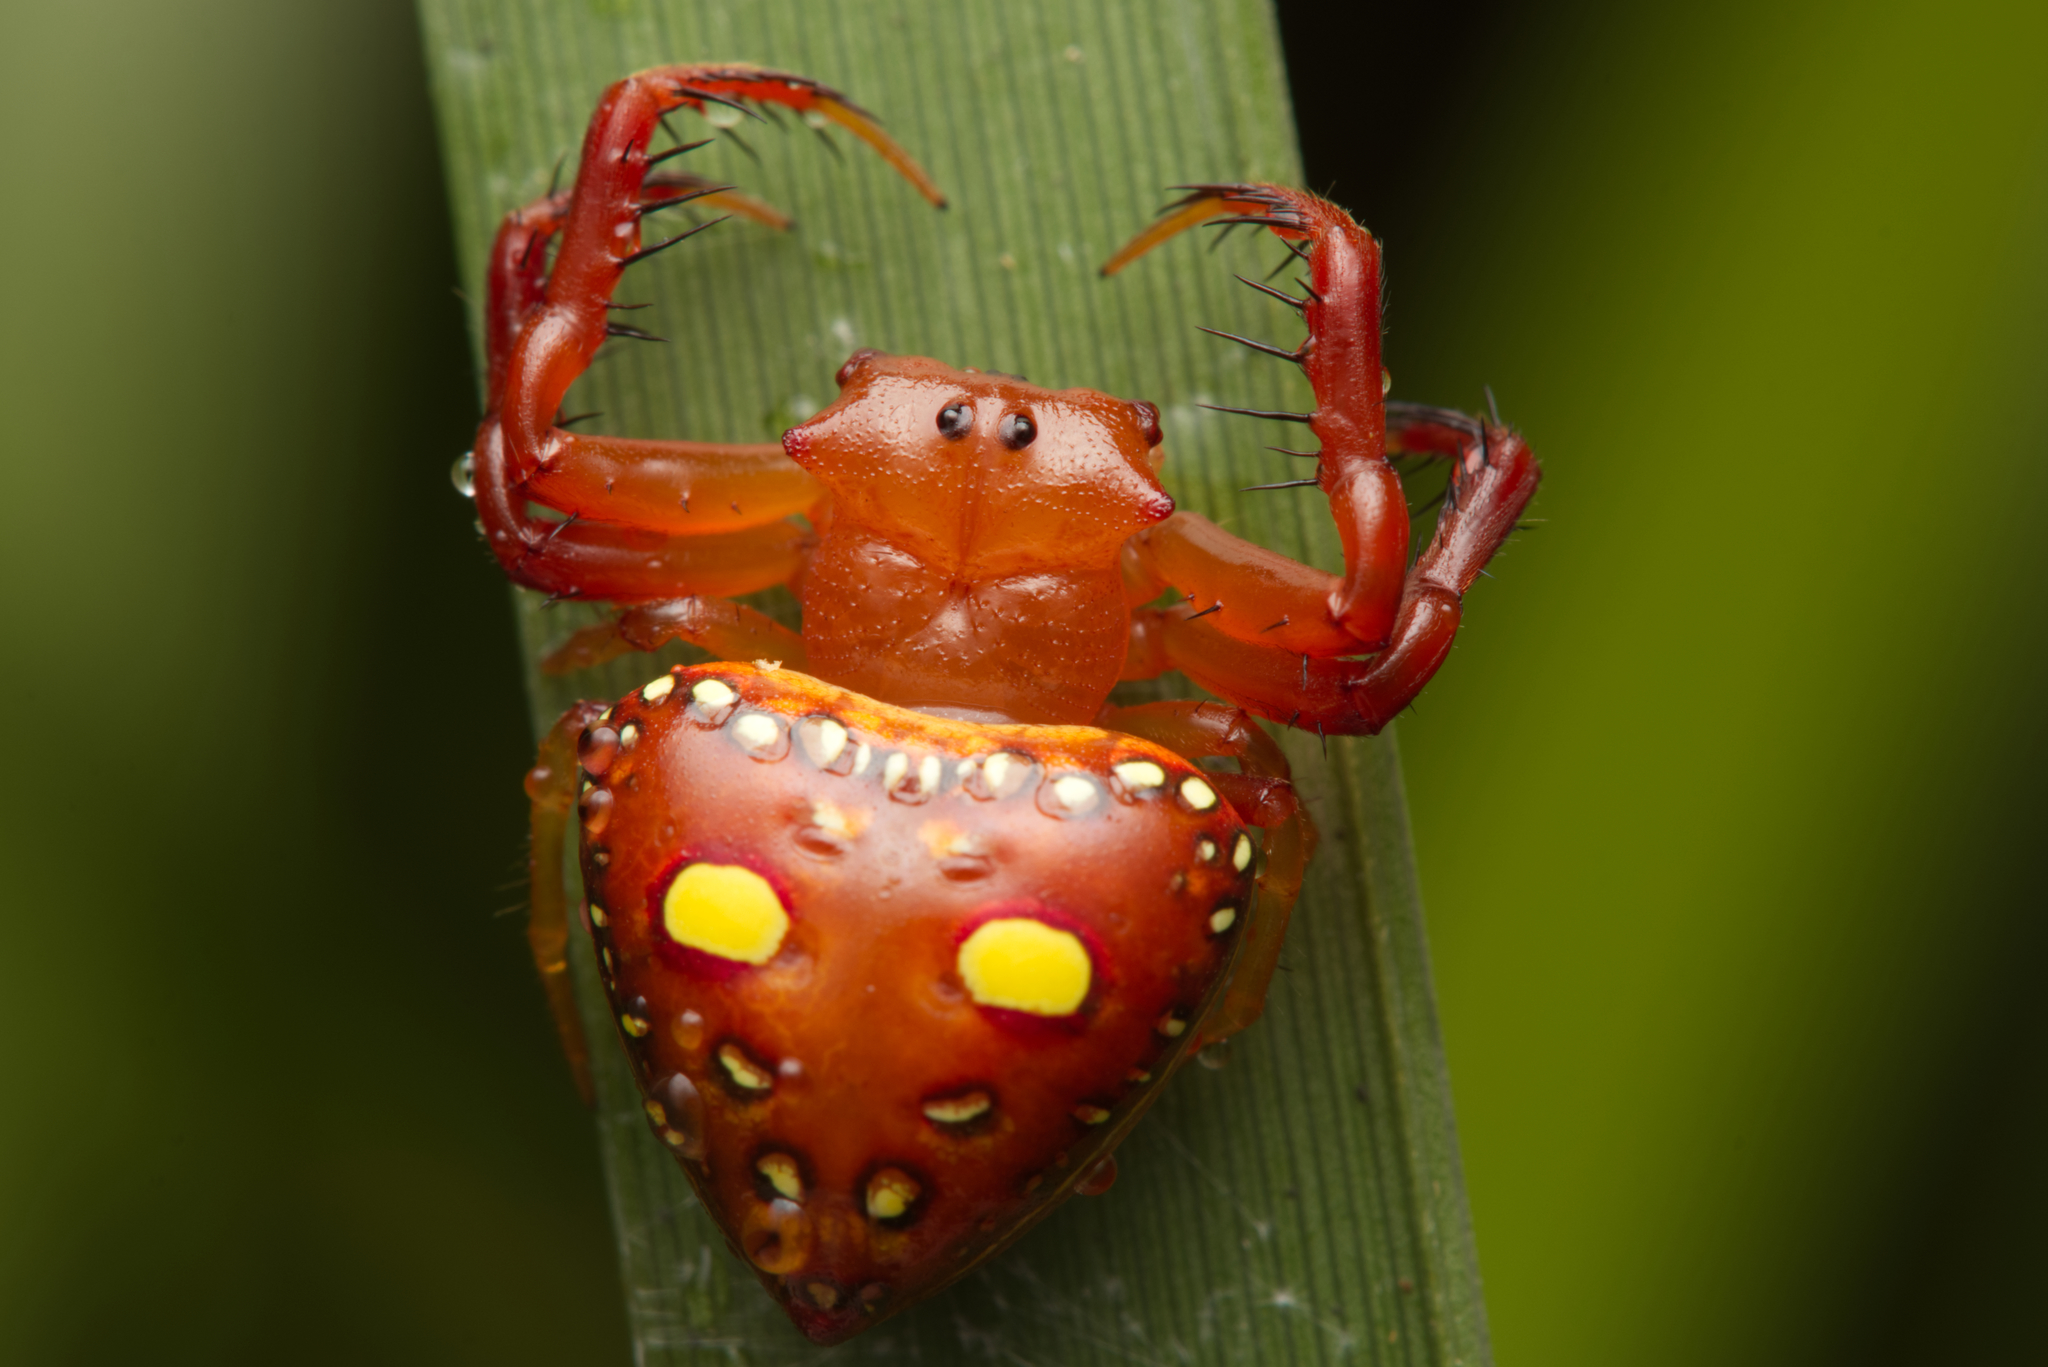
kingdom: Animalia
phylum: Arthropoda
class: Arachnida
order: Araneae
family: Arkyidae
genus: Arkys
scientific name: Arkys lancearius
